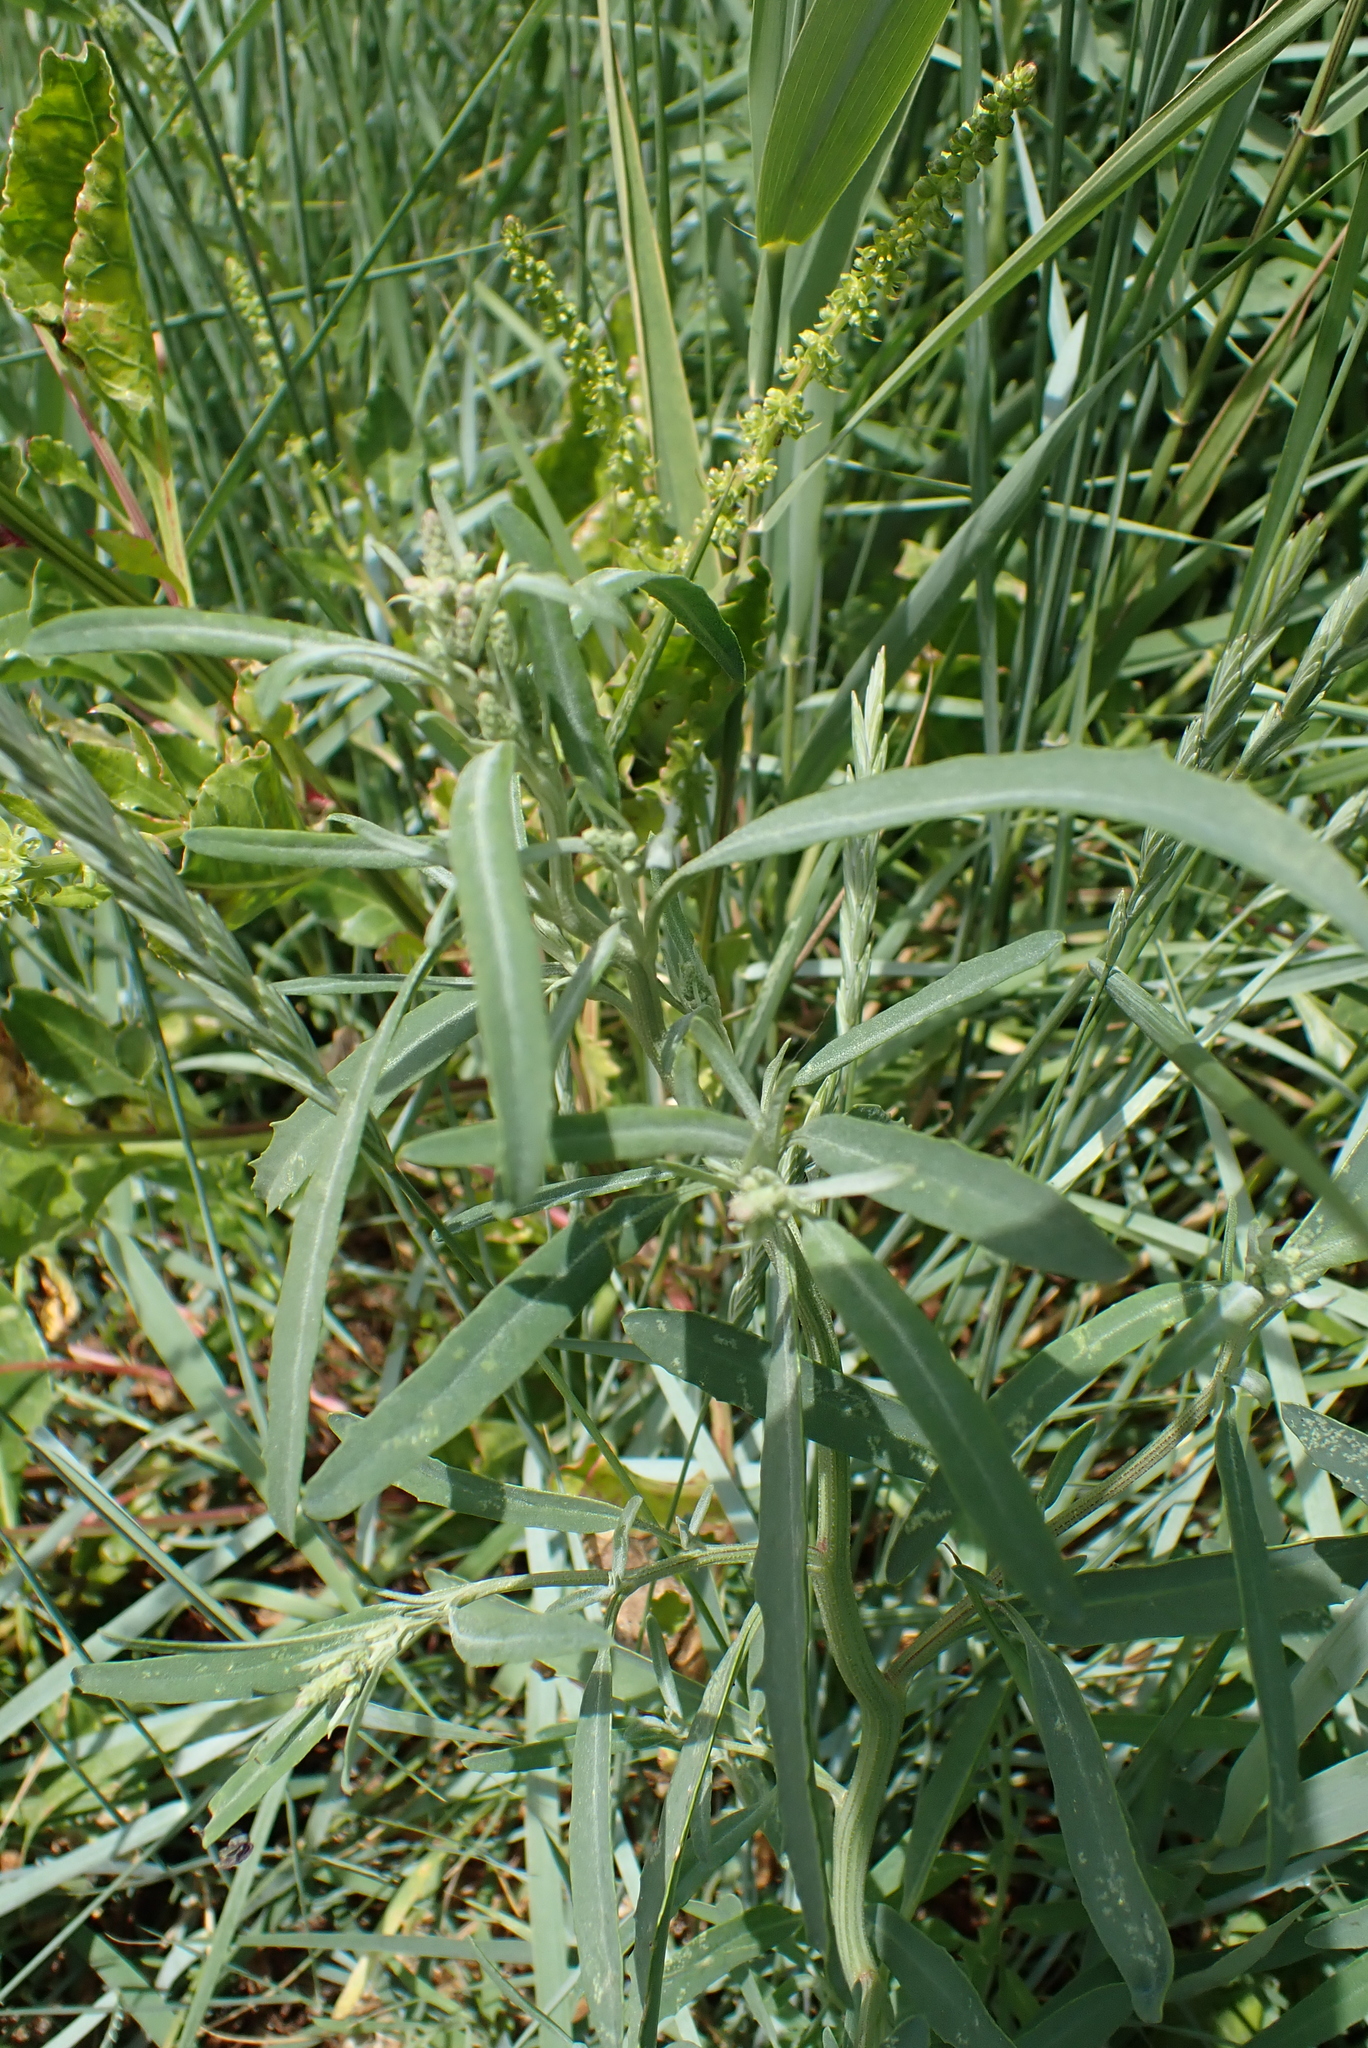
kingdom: Plantae
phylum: Tracheophyta
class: Magnoliopsida
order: Caryophyllales
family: Amaranthaceae
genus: Atriplex
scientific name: Atriplex littoralis
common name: Grass-leaved orache
